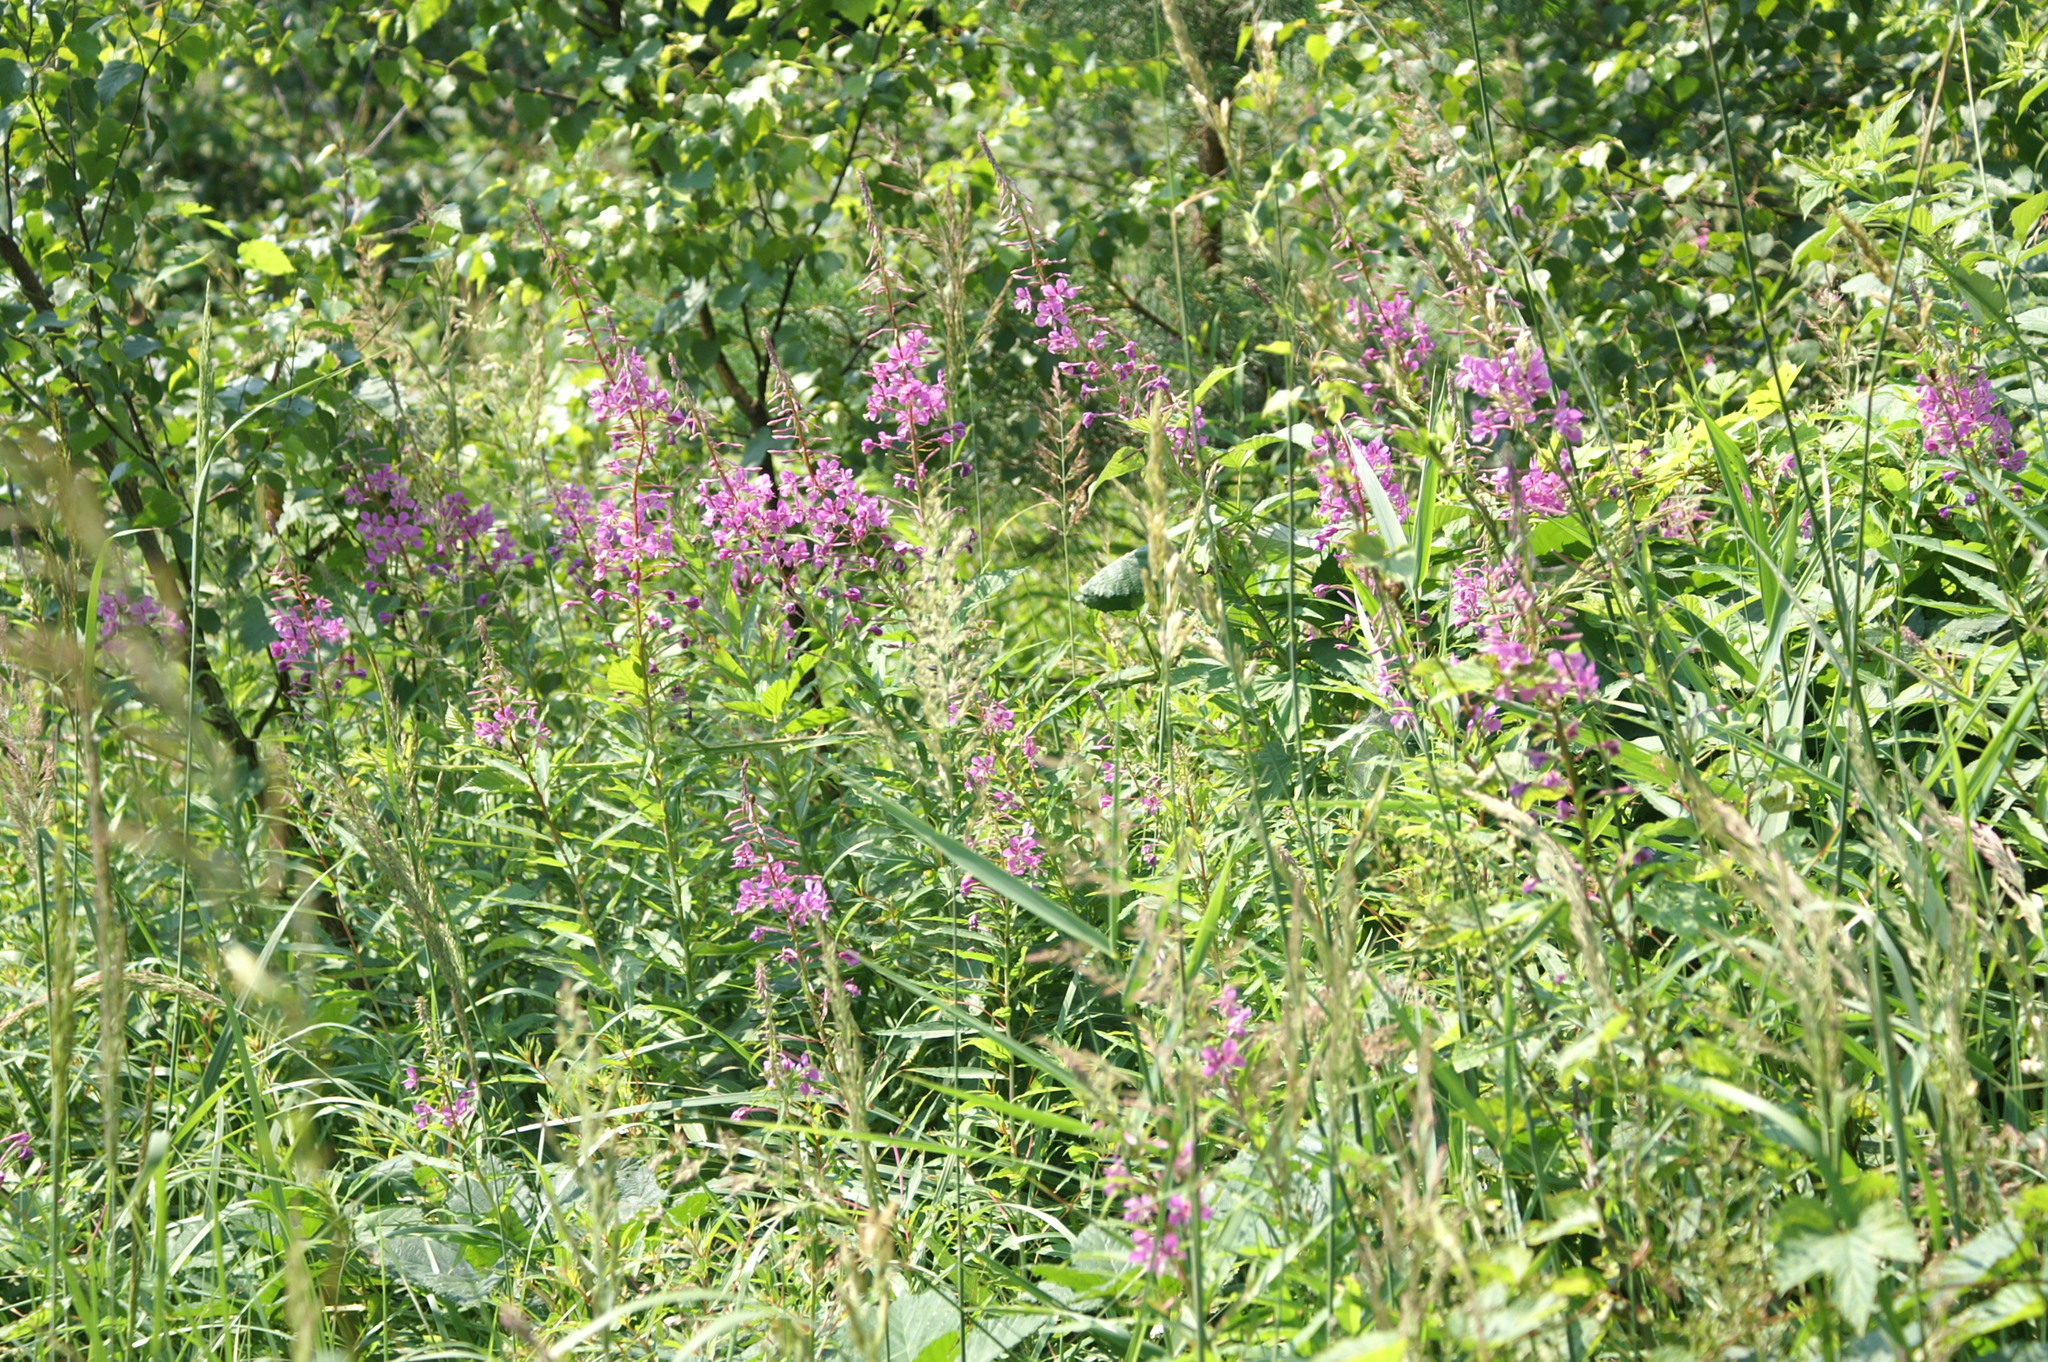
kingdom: Plantae
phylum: Tracheophyta
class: Magnoliopsida
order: Myrtales
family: Onagraceae
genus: Chamaenerion
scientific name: Chamaenerion angustifolium
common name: Fireweed
